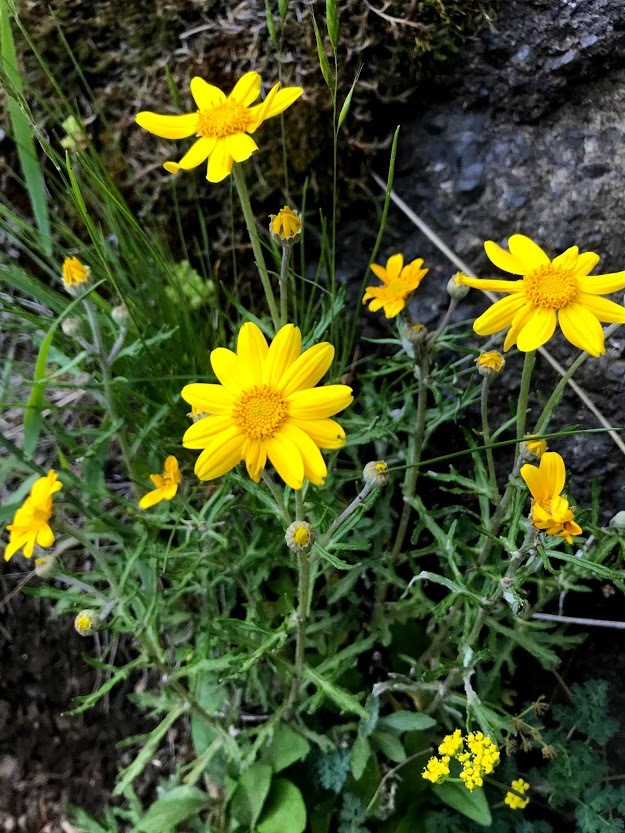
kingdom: Plantae
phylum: Tracheophyta
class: Magnoliopsida
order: Asterales
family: Asteraceae
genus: Eriophyllum
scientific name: Eriophyllum lanatum
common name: Common woolly-sunflower
